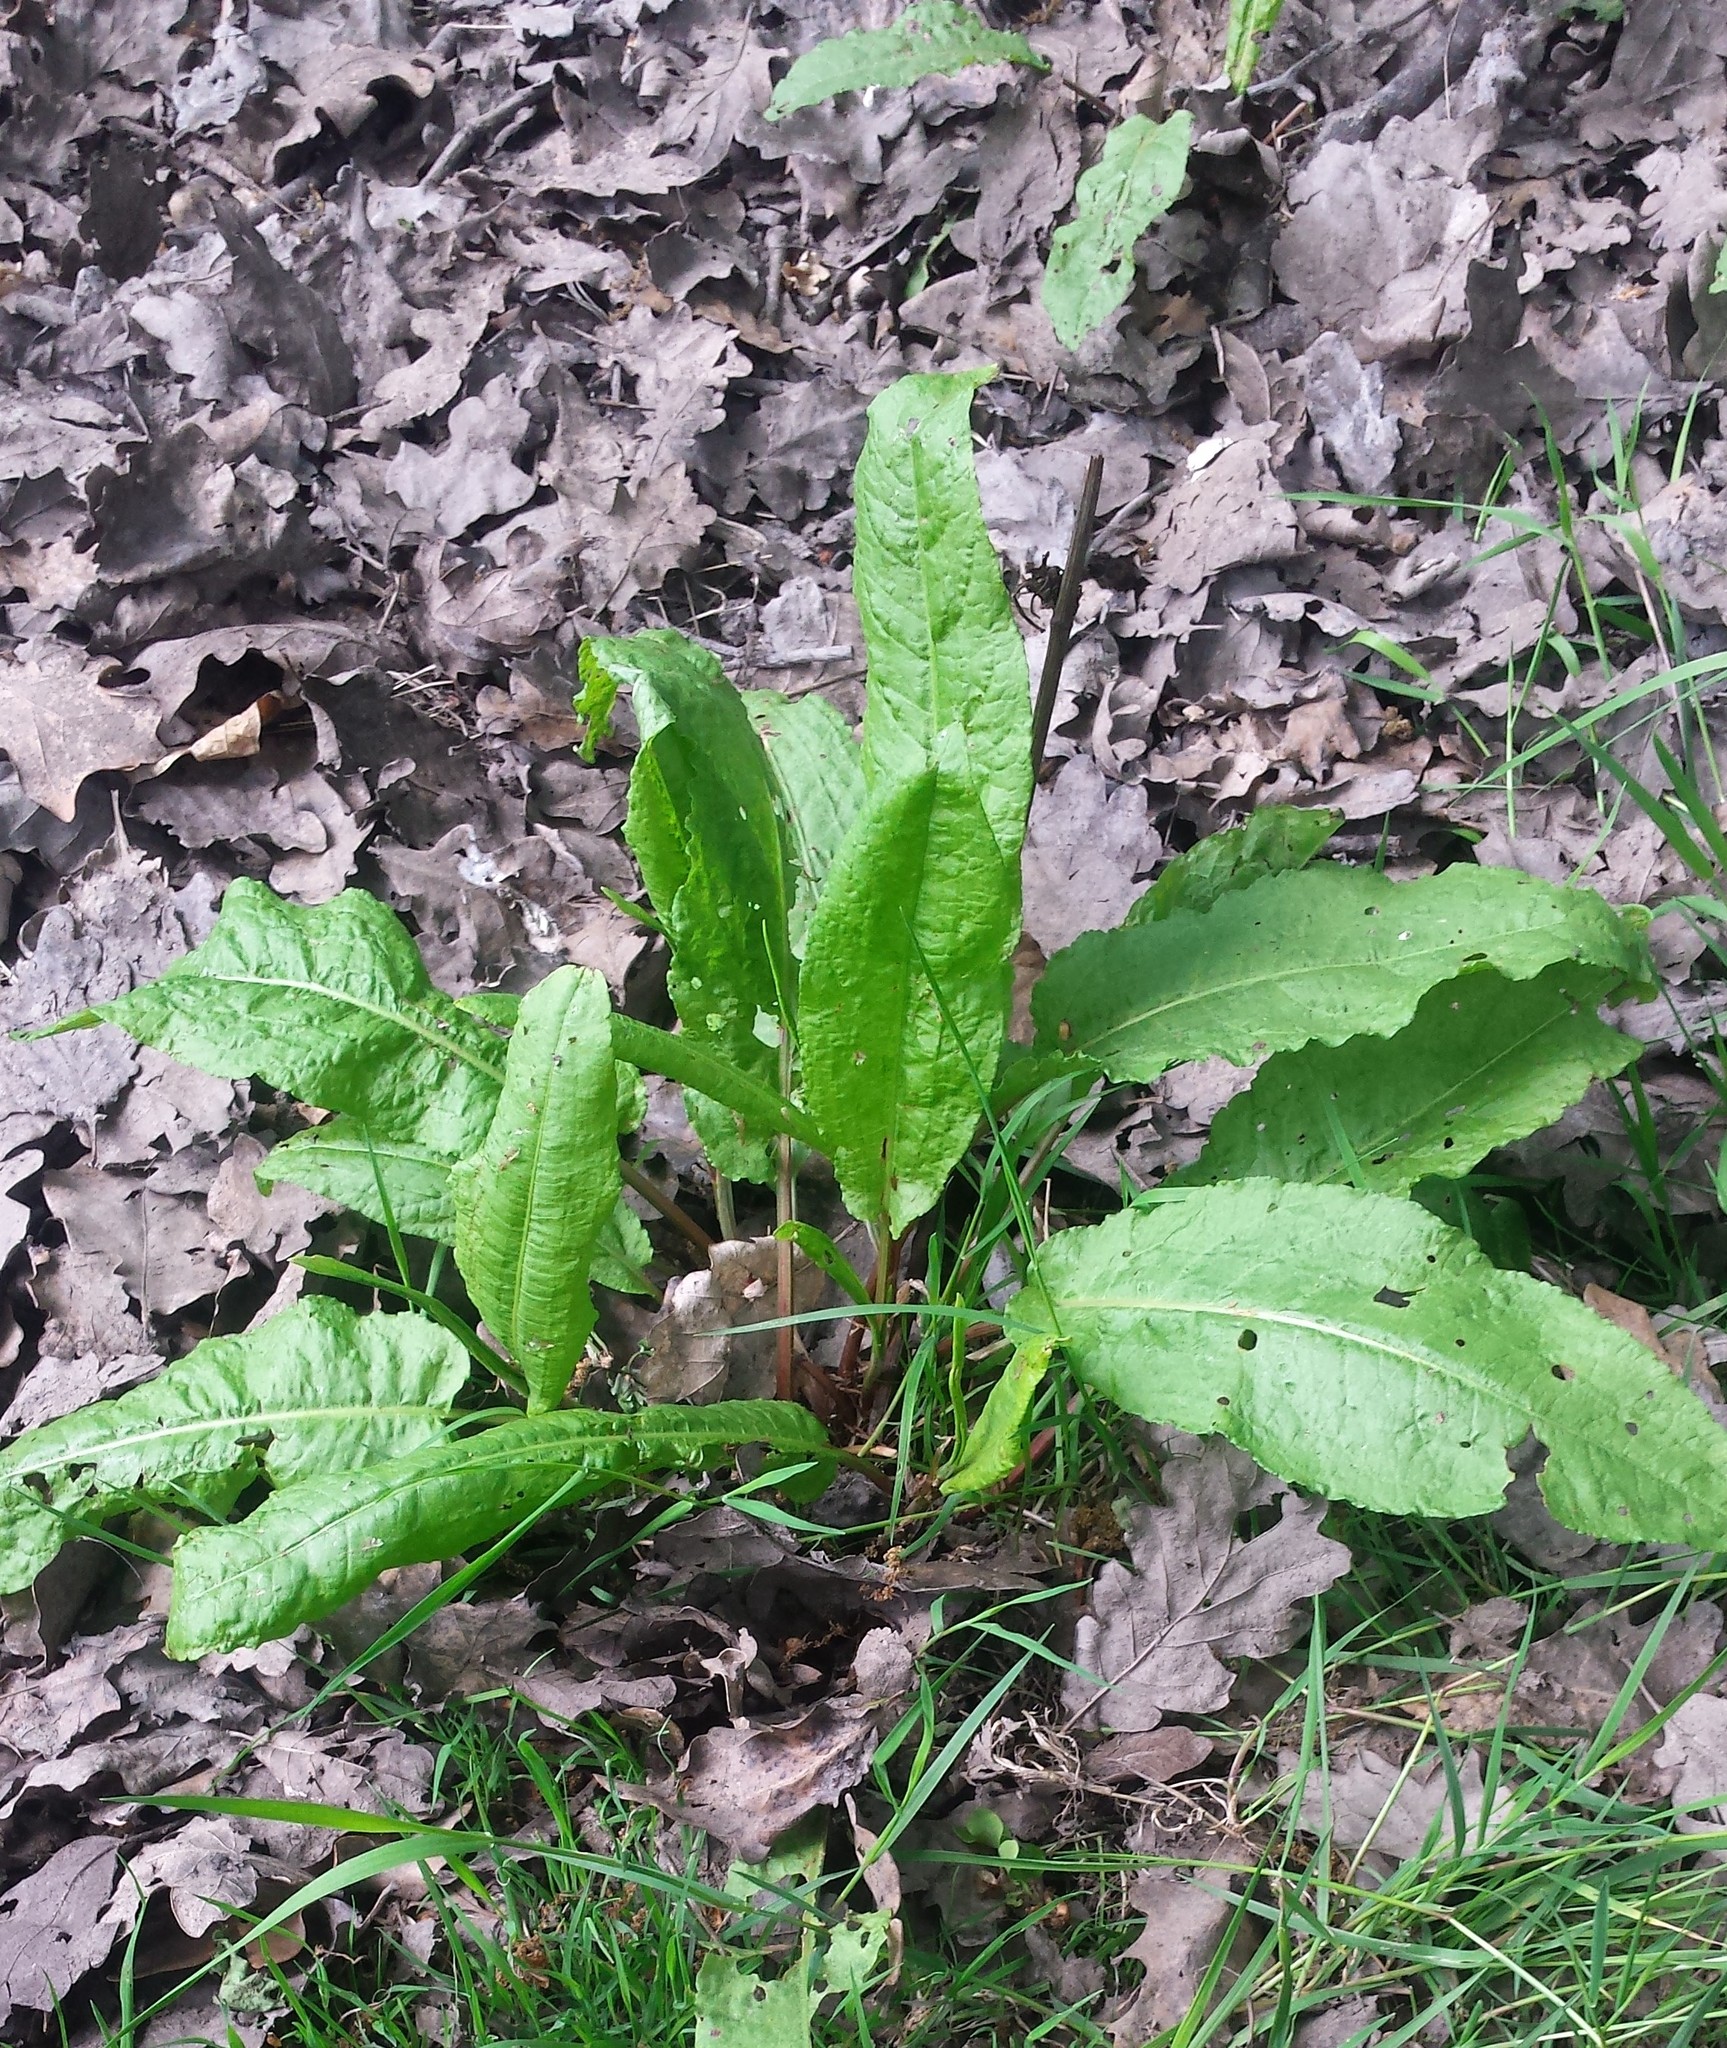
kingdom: Plantae
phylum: Tracheophyta
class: Magnoliopsida
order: Caryophyllales
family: Polygonaceae
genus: Rumex
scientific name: Rumex obtusifolius
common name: Bitter dock
